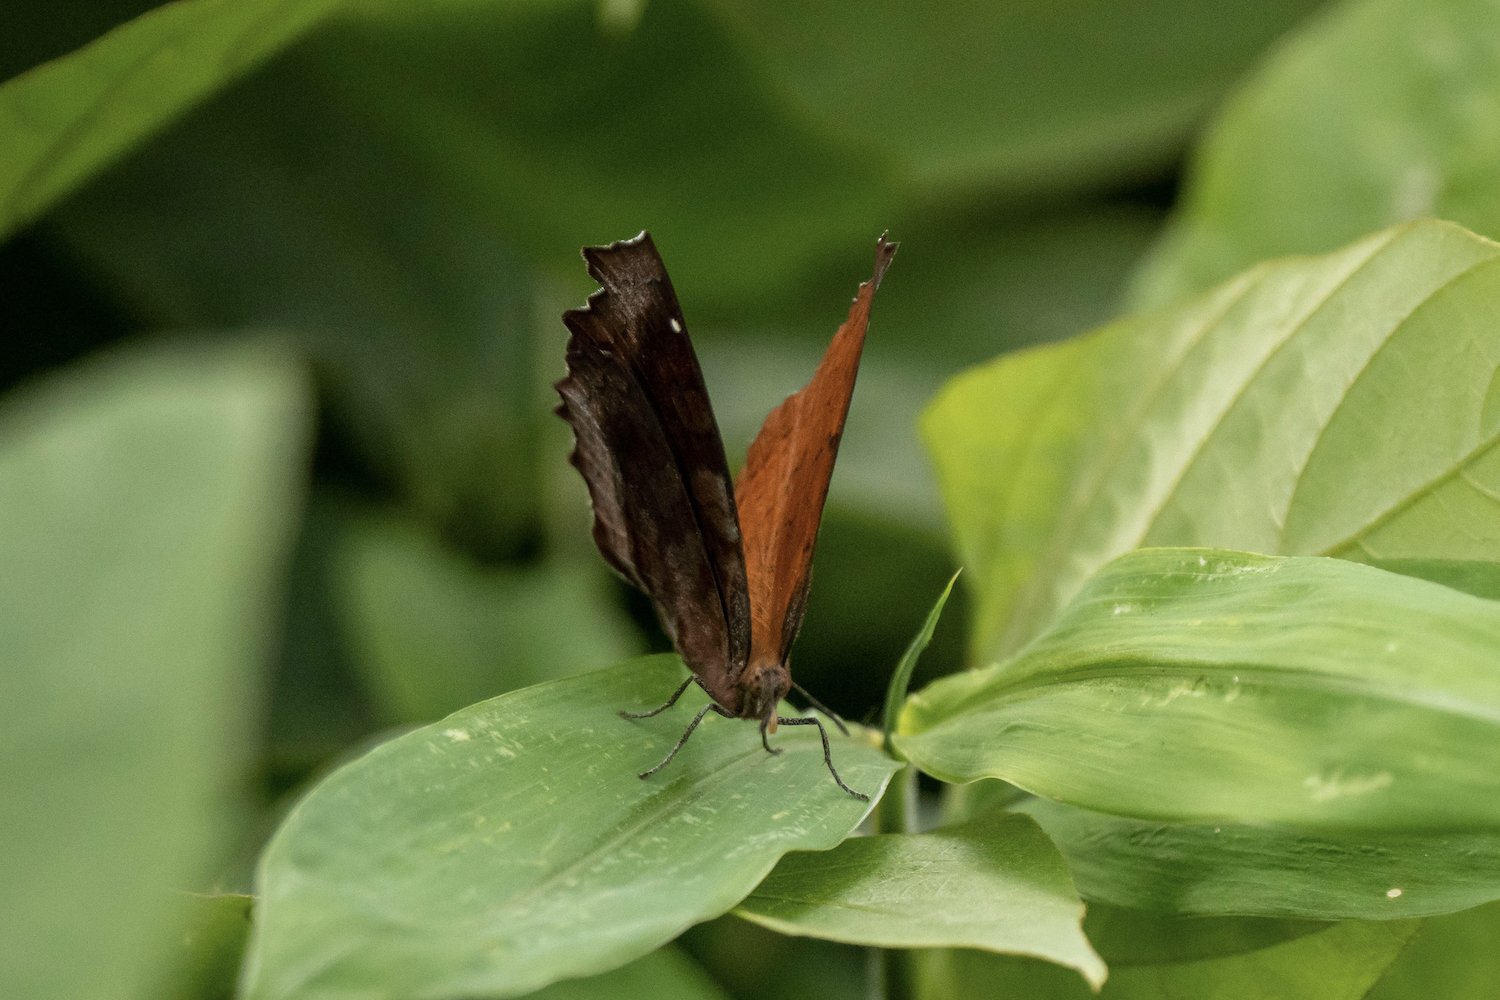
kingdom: Animalia
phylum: Arthropoda
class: Insecta
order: Lepidoptera
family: Nymphalidae
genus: Ariadne
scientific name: Ariadne ariadne
